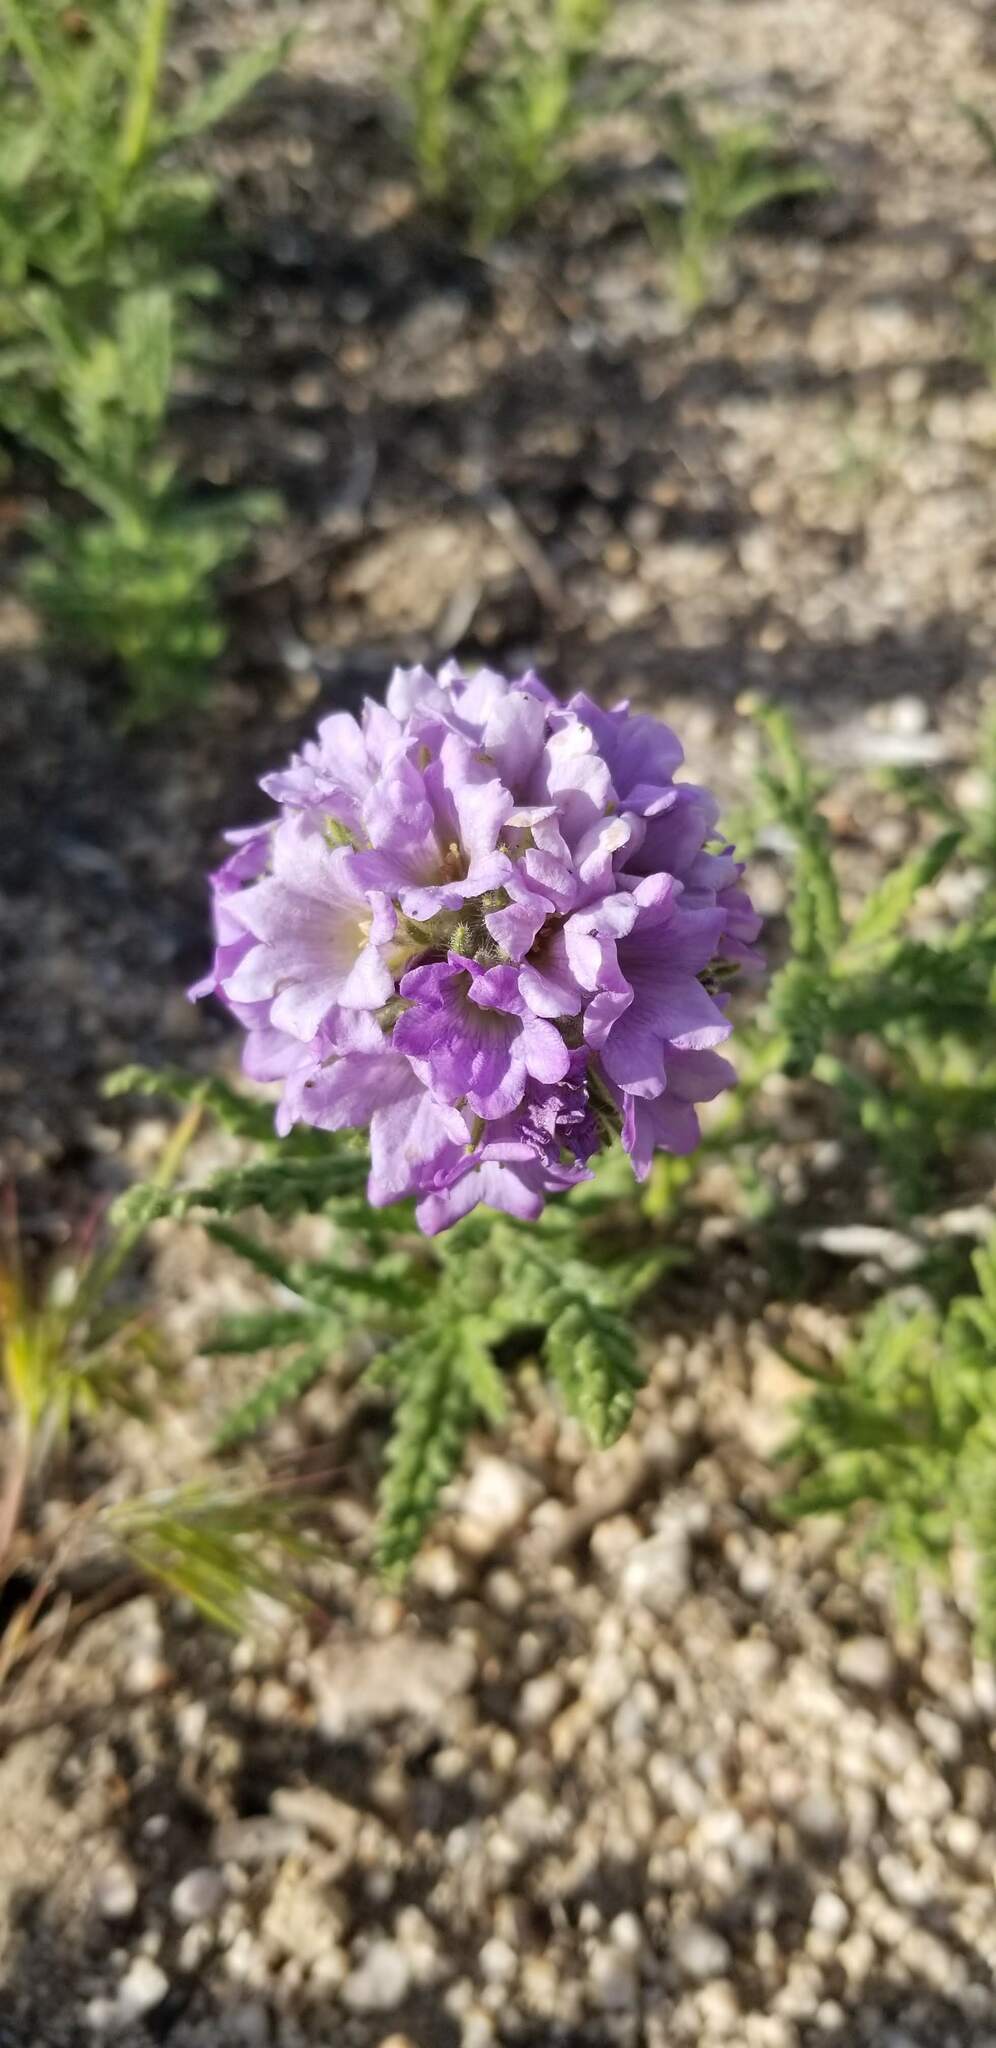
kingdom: Plantae
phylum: Tracheophyta
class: Magnoliopsida
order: Boraginales
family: Namaceae
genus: Nama
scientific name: Nama rothrockii
